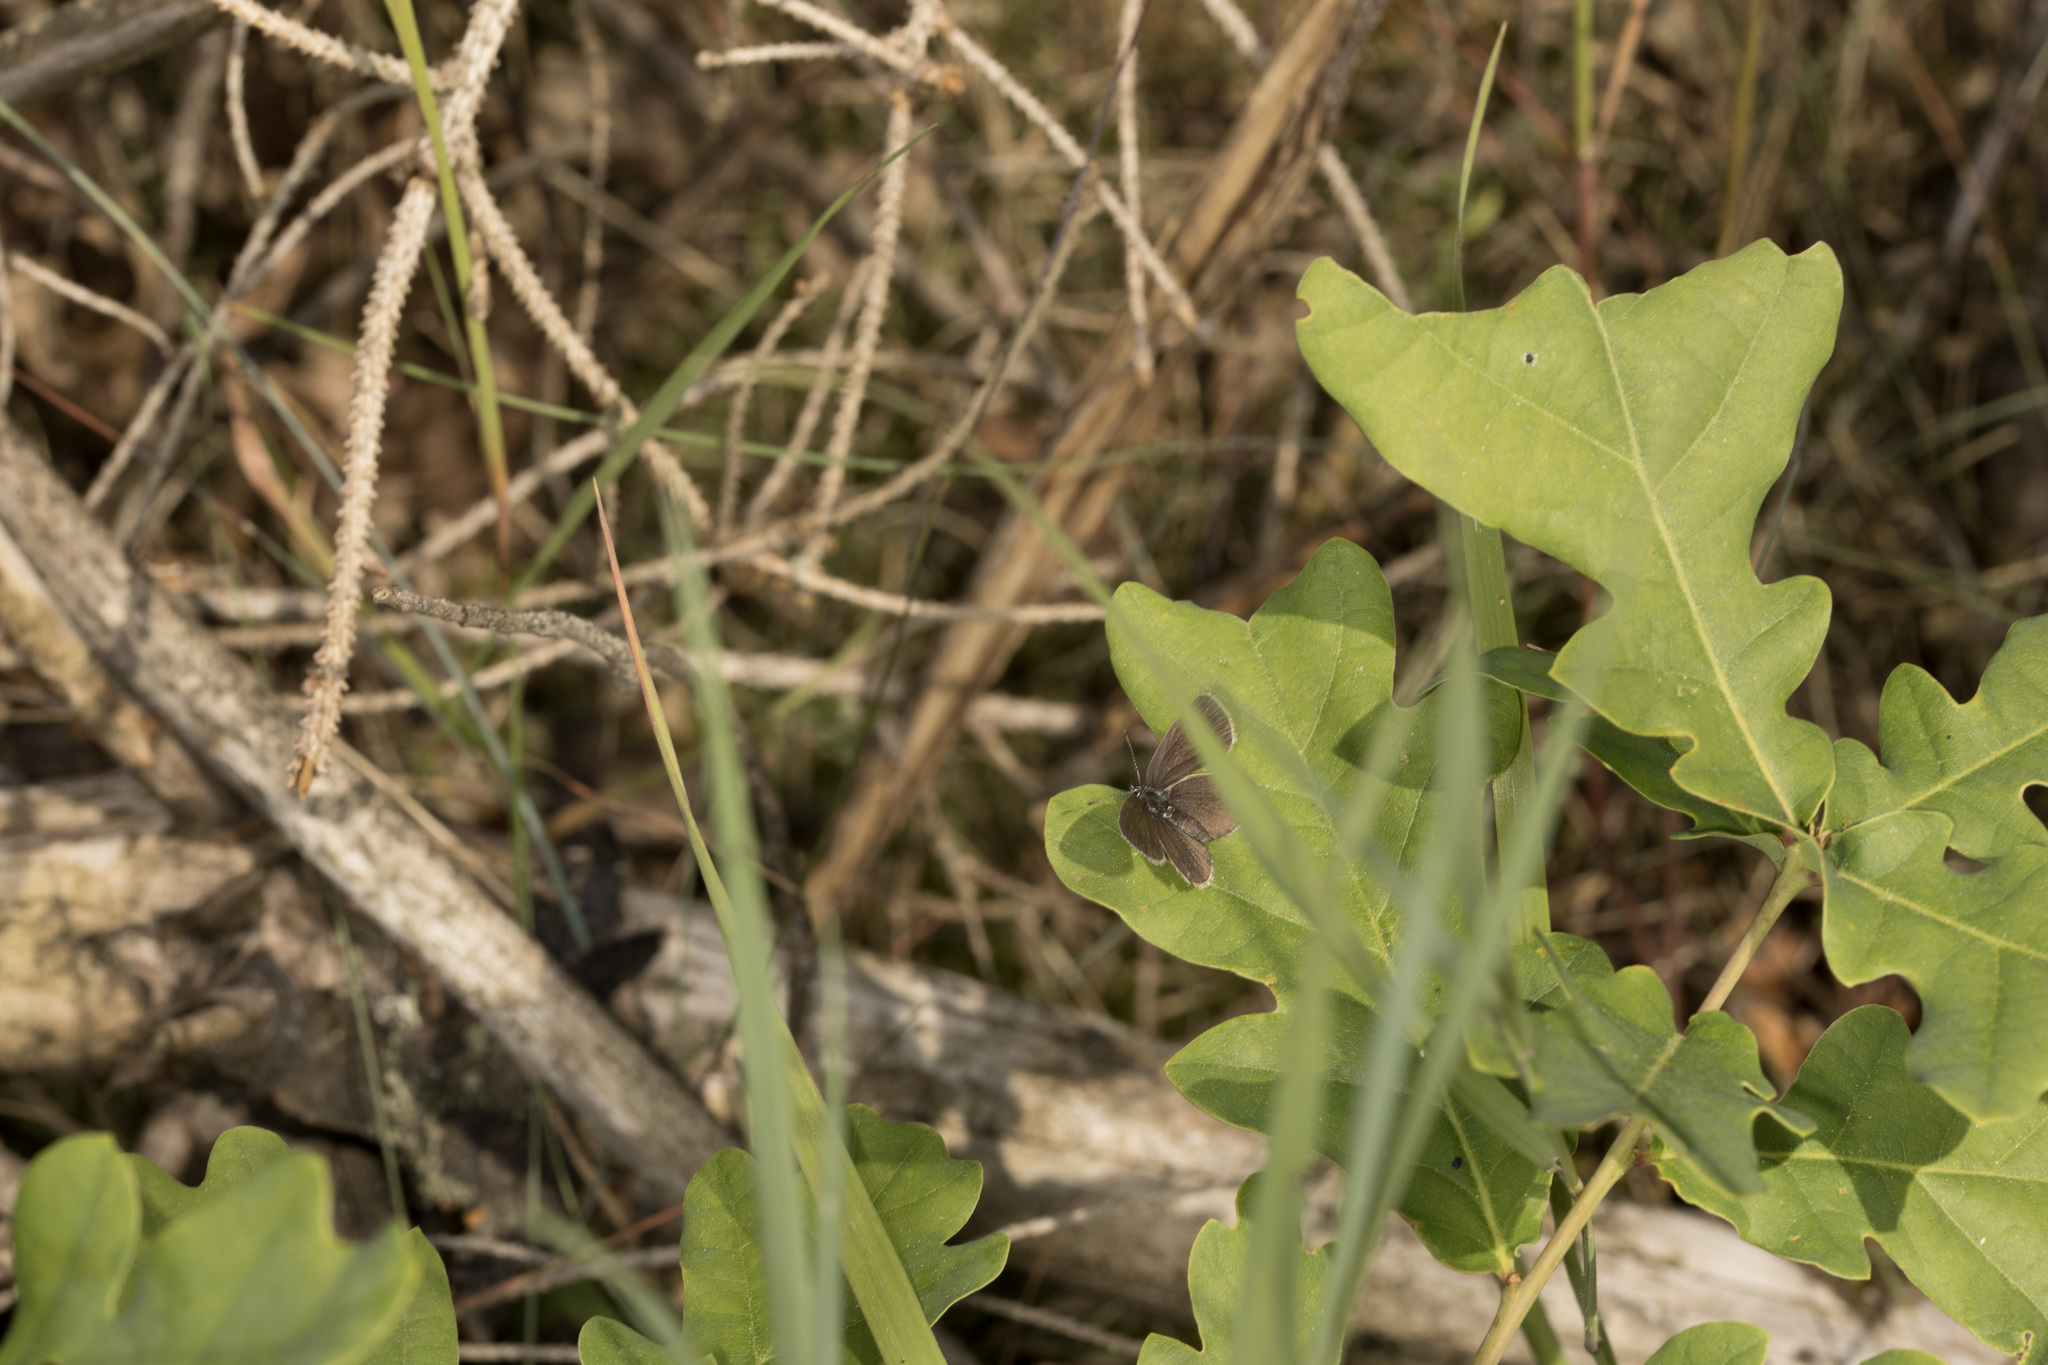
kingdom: Animalia
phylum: Arthropoda
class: Insecta
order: Lepidoptera
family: Lycaenidae
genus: Cupido
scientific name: Cupido minimus
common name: Small blue
